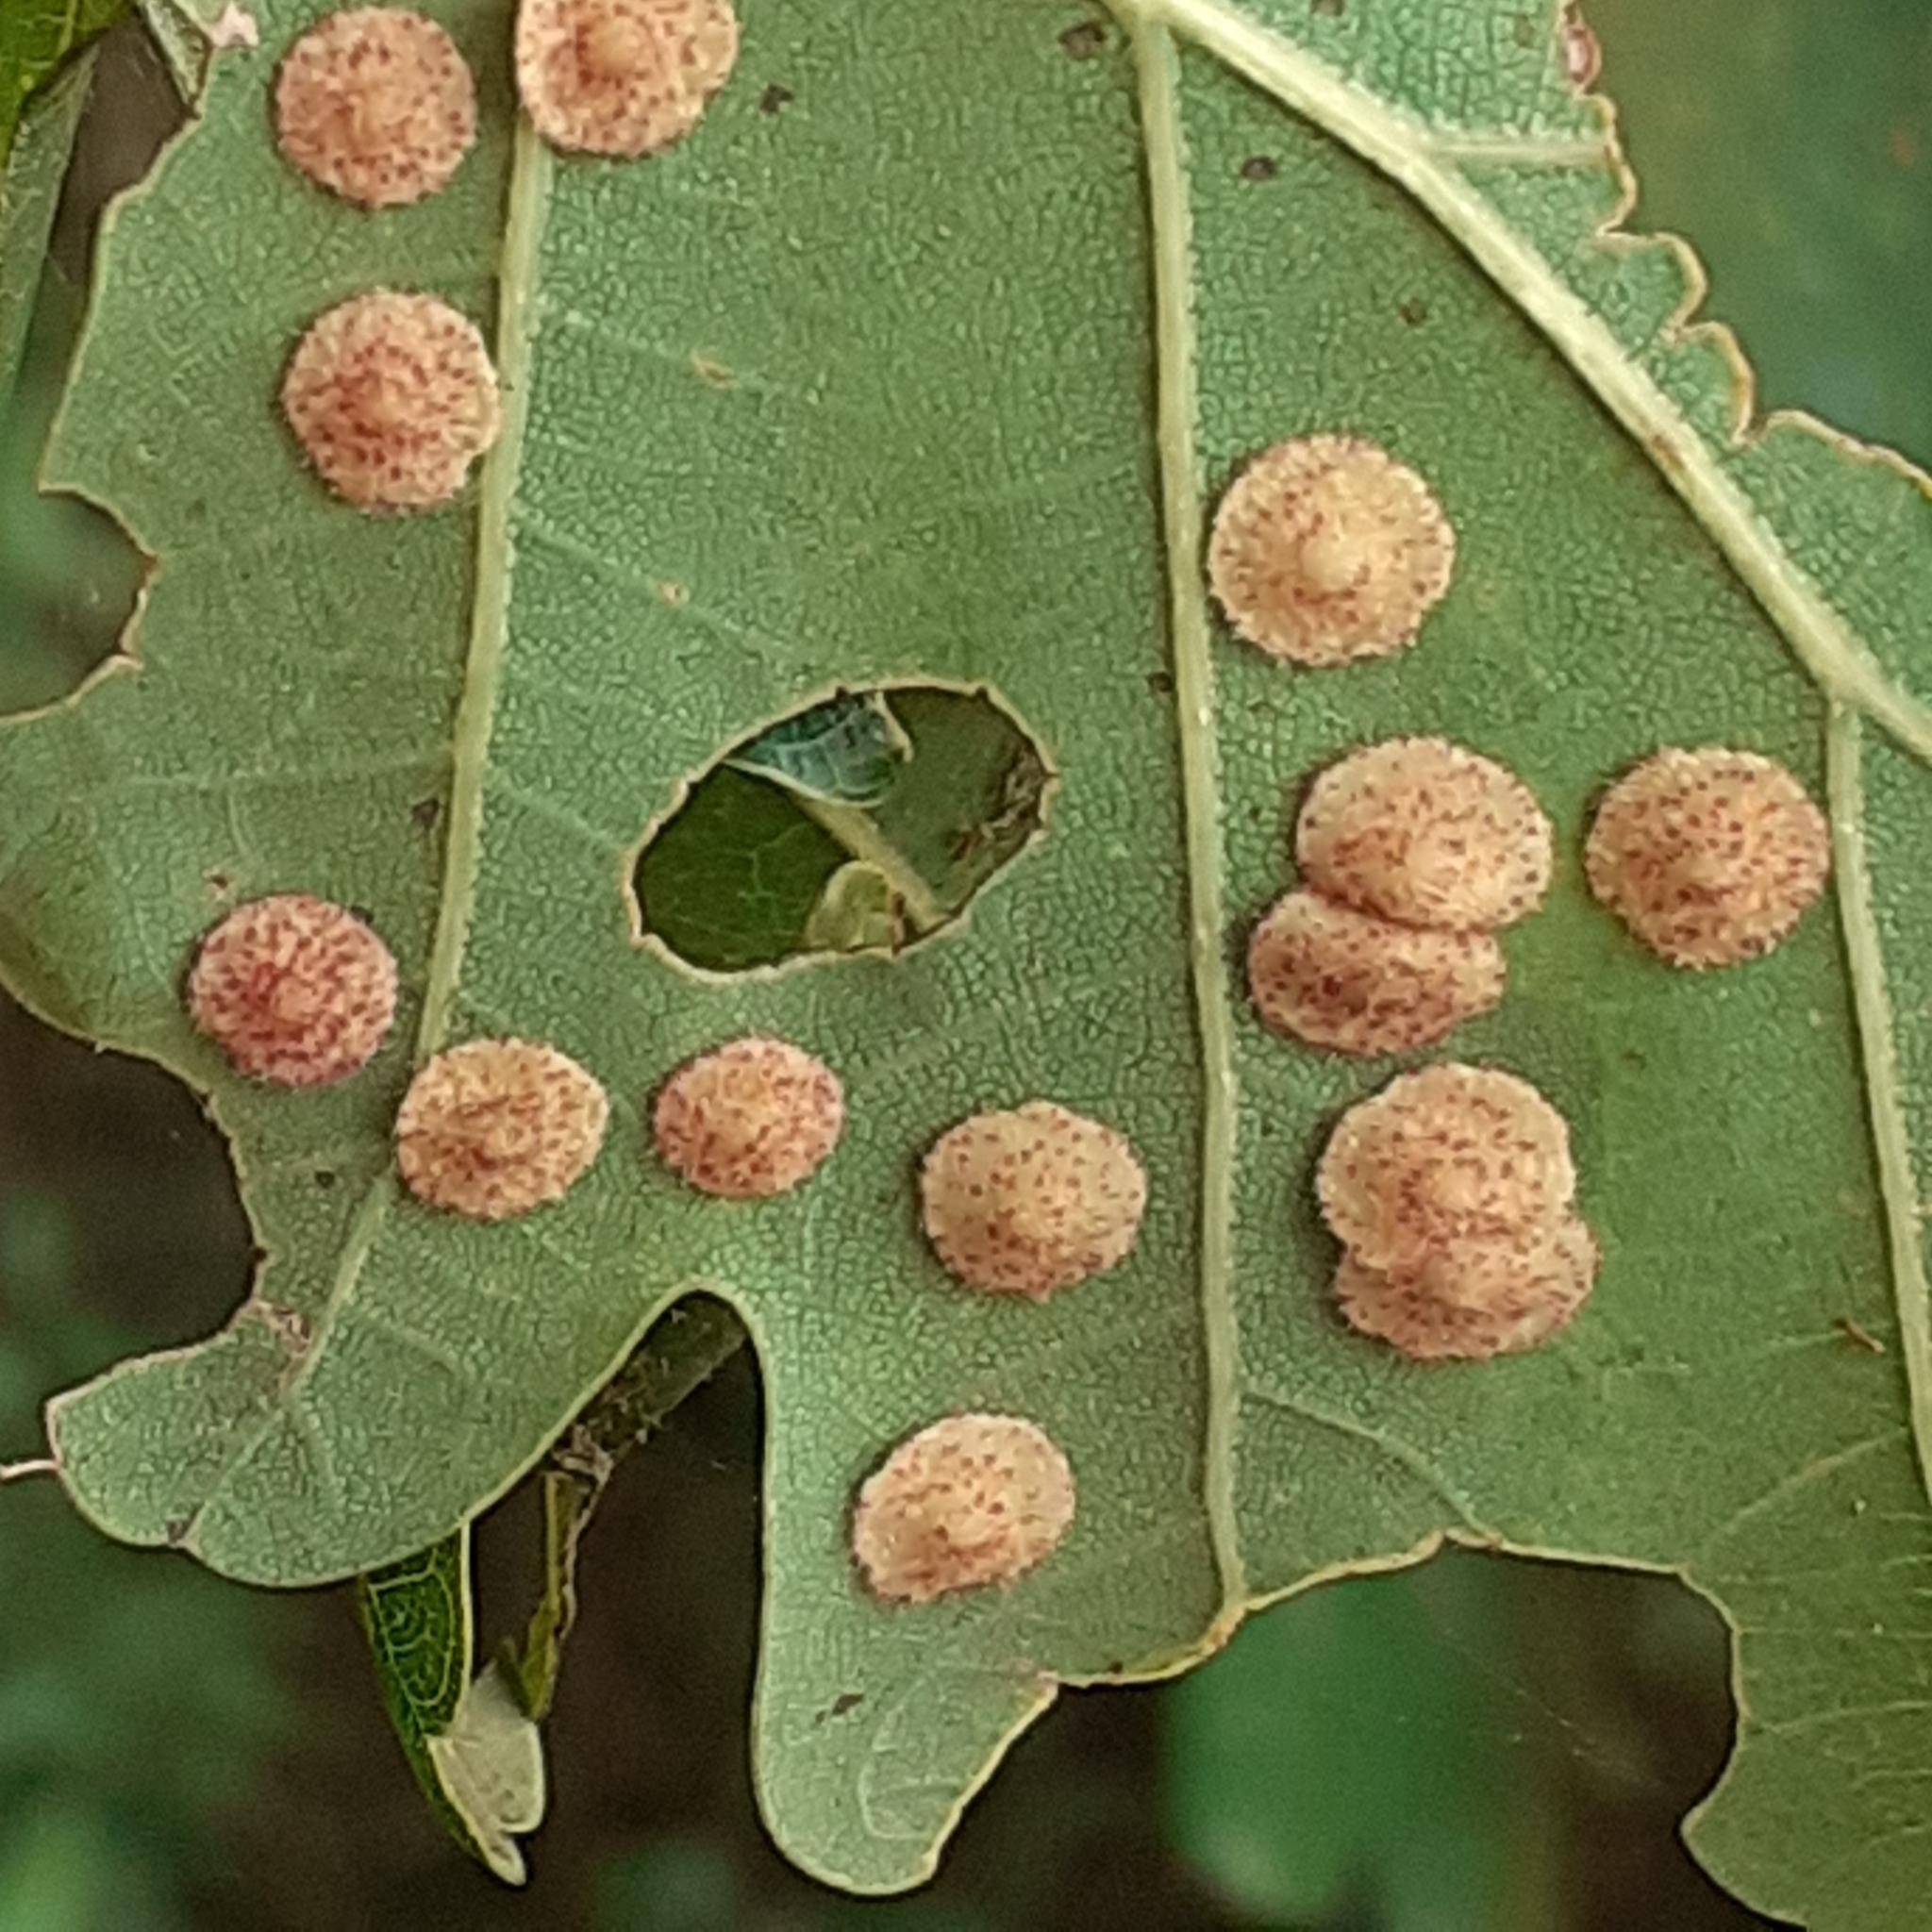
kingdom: Animalia
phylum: Arthropoda
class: Insecta
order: Hymenoptera
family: Cynipidae
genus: Neuroterus
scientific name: Neuroterus quercusbaccarum
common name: Common spangle gall
